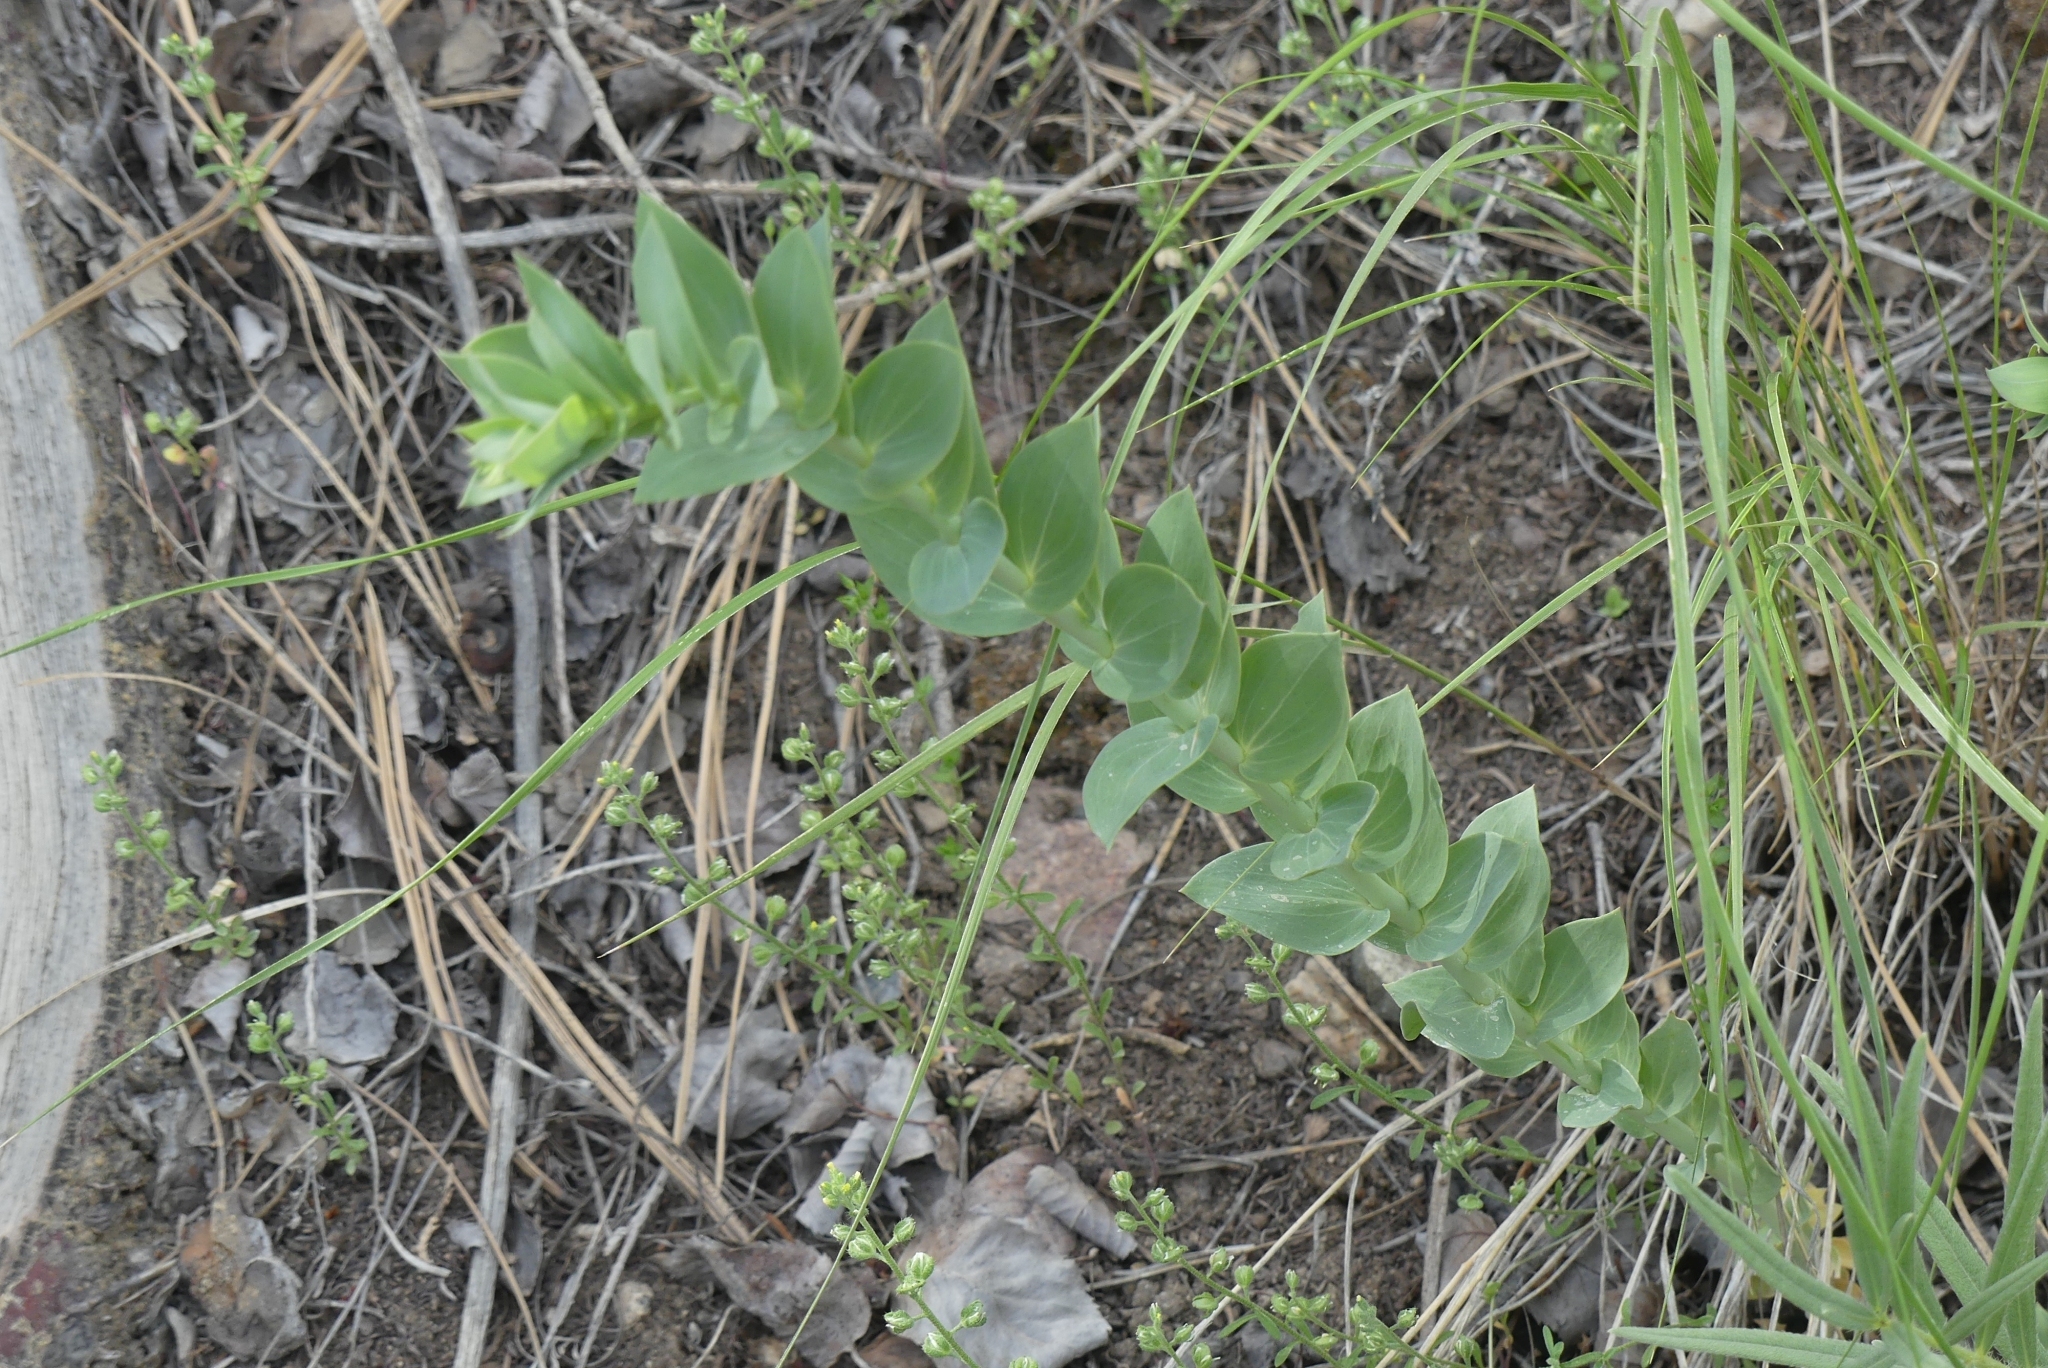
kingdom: Plantae
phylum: Tracheophyta
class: Magnoliopsida
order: Lamiales
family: Plantaginaceae
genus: Linaria
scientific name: Linaria dalmatica
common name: Dalmatian toadflax
